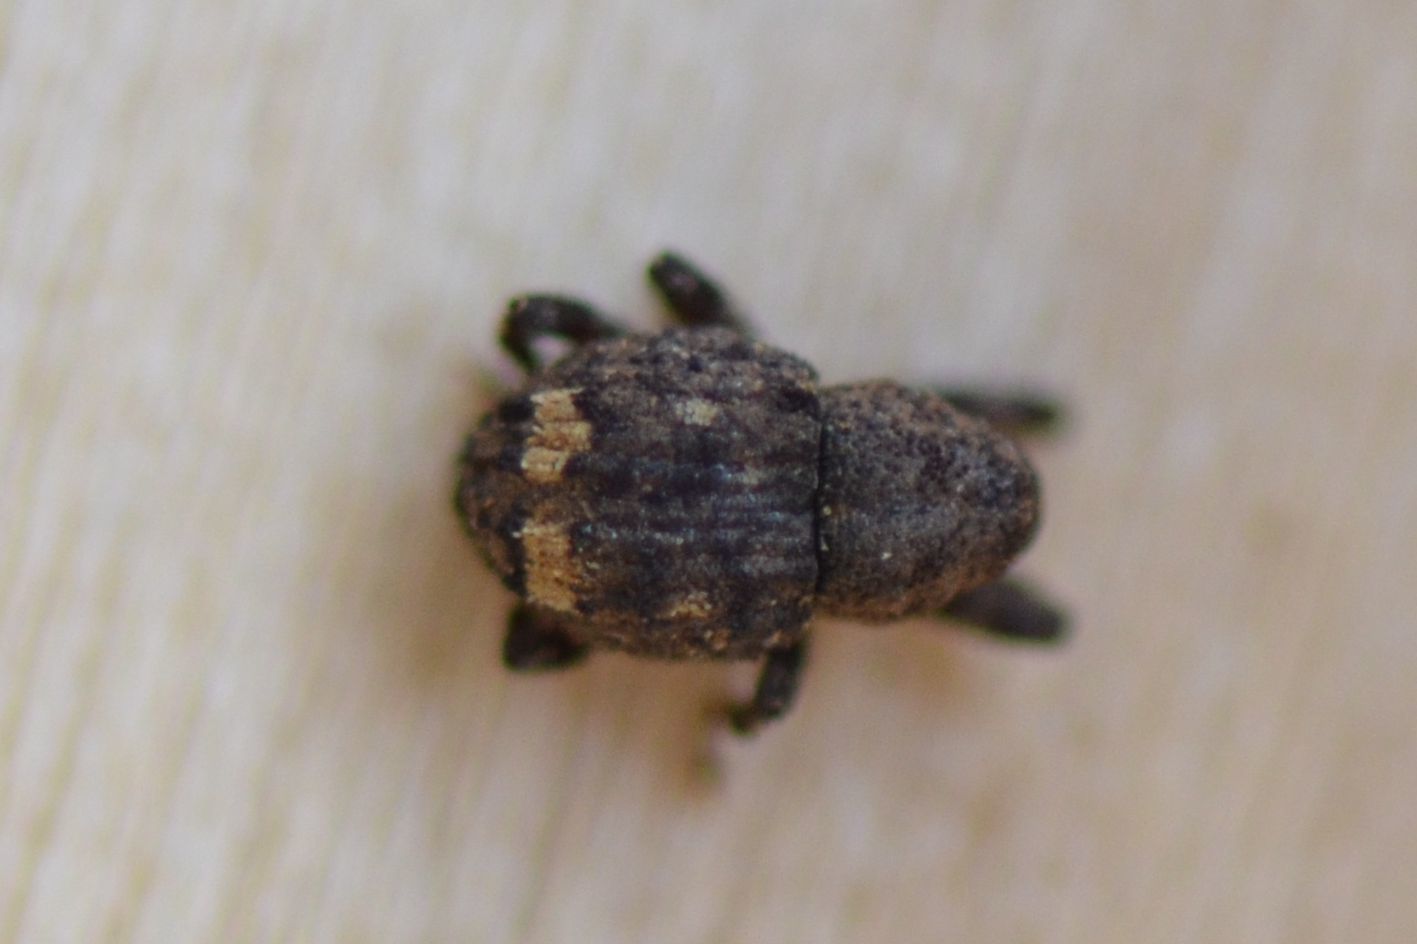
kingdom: Animalia
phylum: Arthropoda
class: Insecta
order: Coleoptera
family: Curculionidae
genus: Echinodera
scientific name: Echinodera hypocrita
